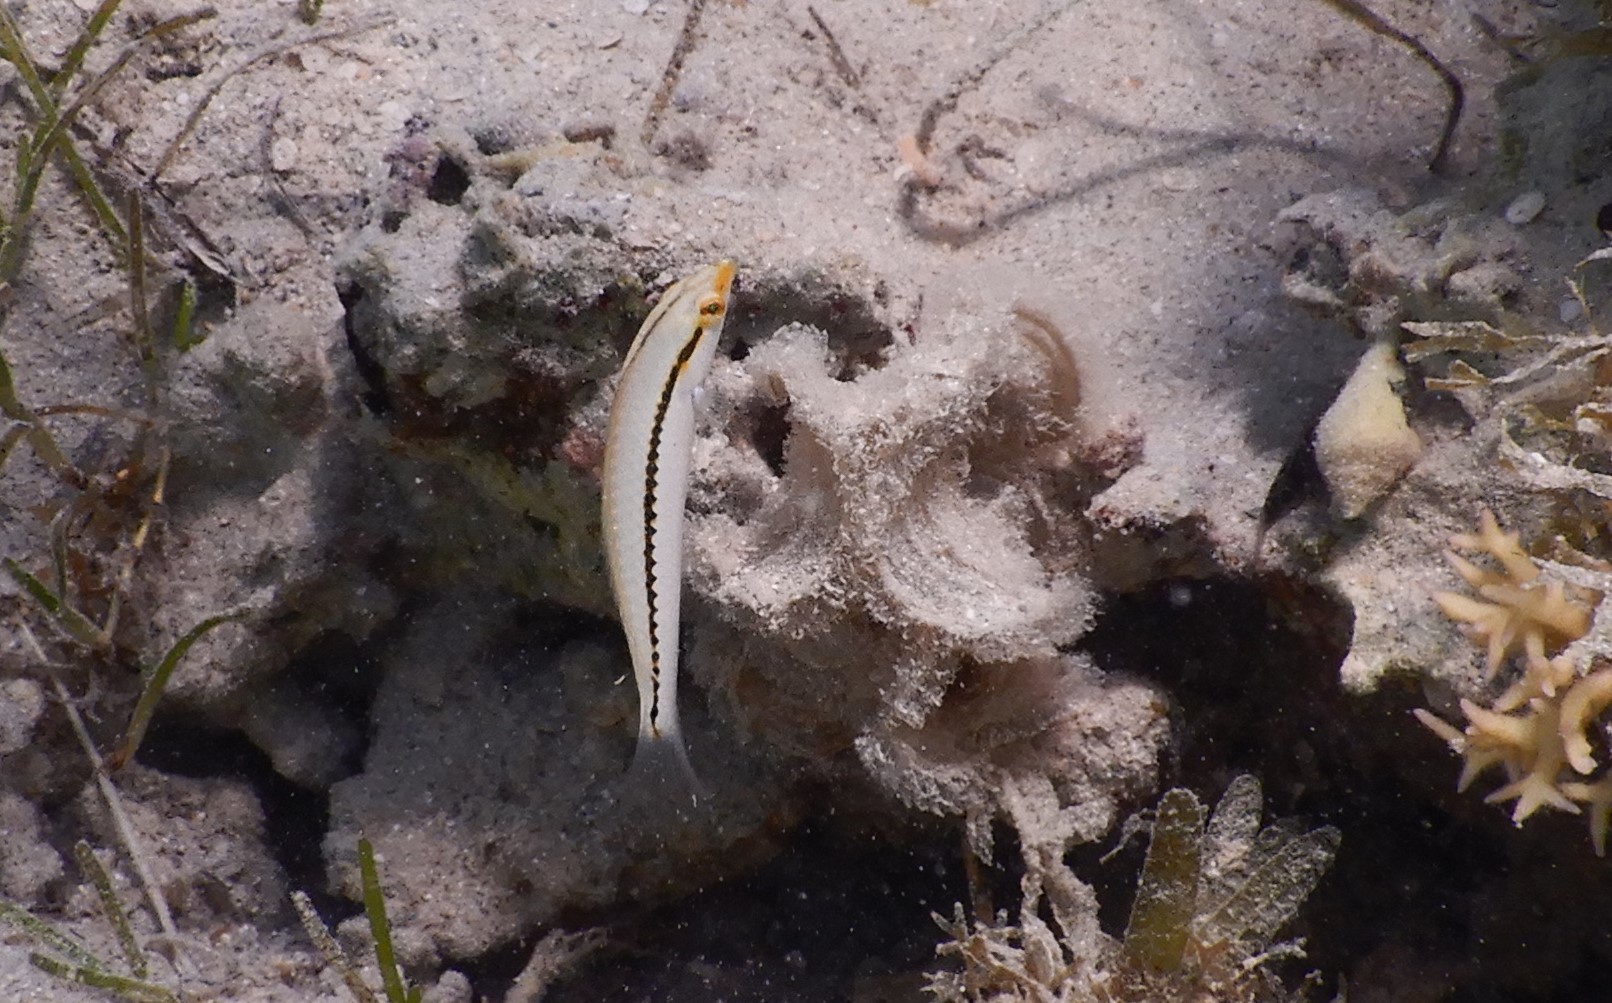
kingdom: Animalia
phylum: Chordata
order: Perciformes
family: Labridae
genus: Halichoeres
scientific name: Halichoeres scapularis
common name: Brownbanded wrasse
